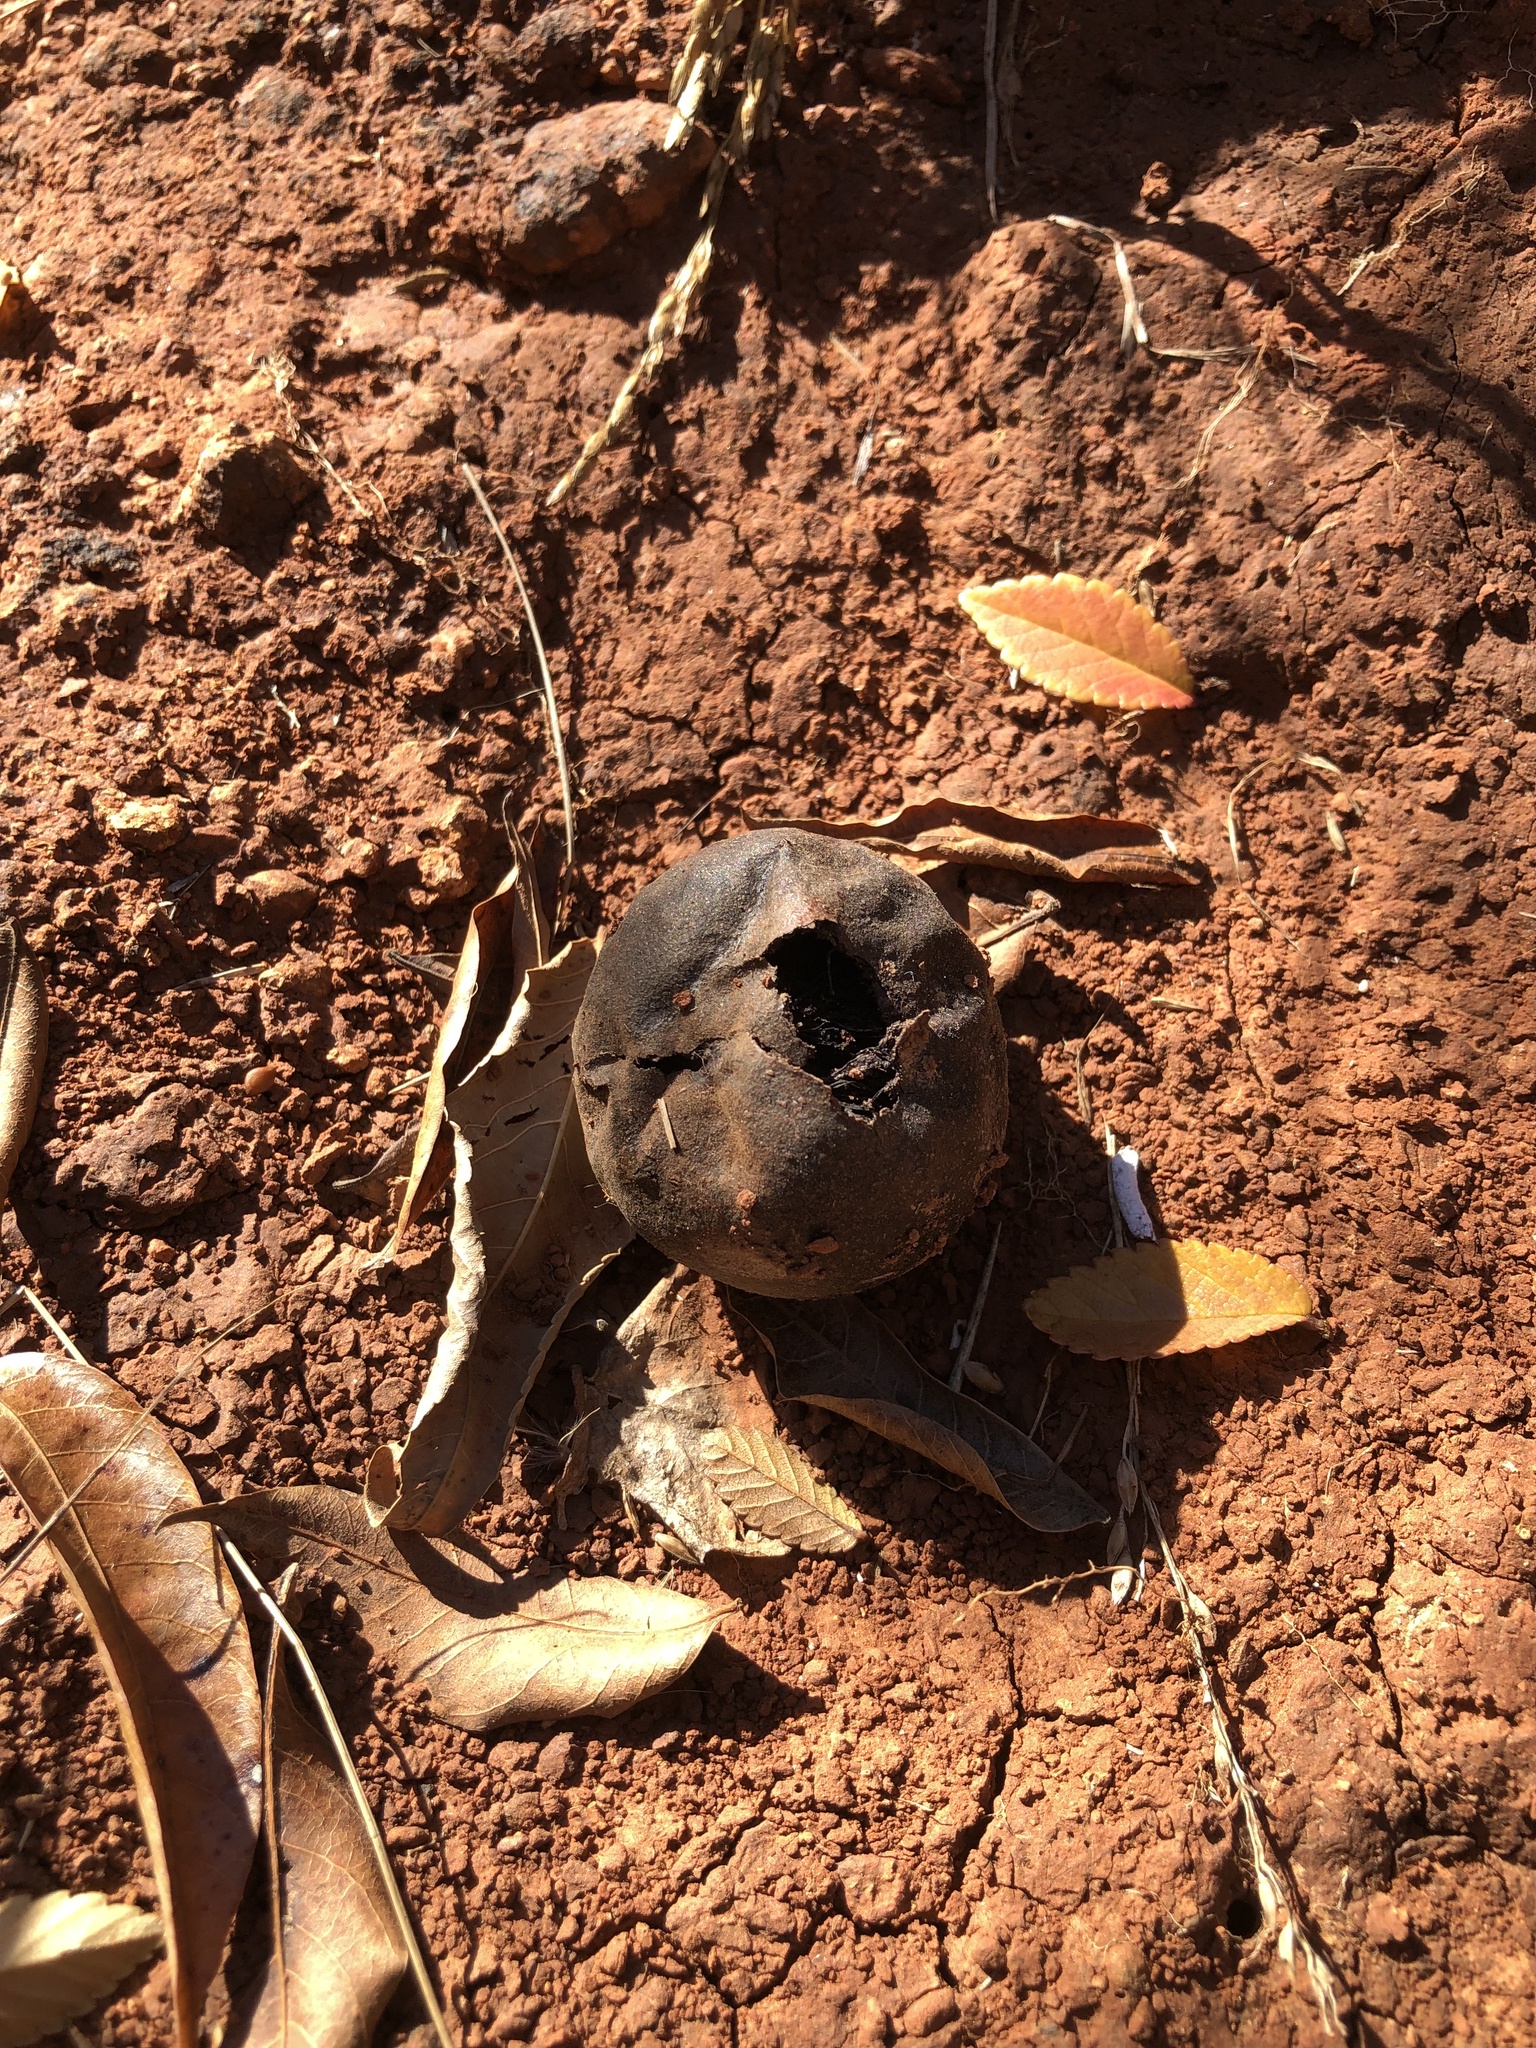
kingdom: Plantae
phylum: Tracheophyta
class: Magnoliopsida
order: Fagales
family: Juglandaceae
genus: Juglans
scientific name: Juglans nigra
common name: Black walnut
